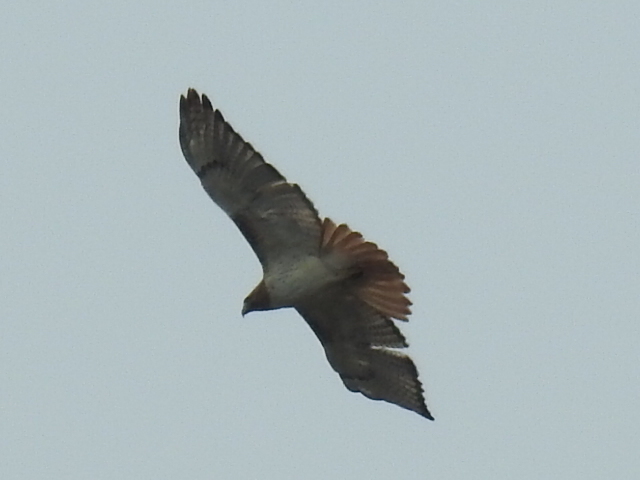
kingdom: Animalia
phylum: Chordata
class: Aves
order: Accipitriformes
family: Accipitridae
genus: Buteo
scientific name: Buteo jamaicensis
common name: Red-tailed hawk
